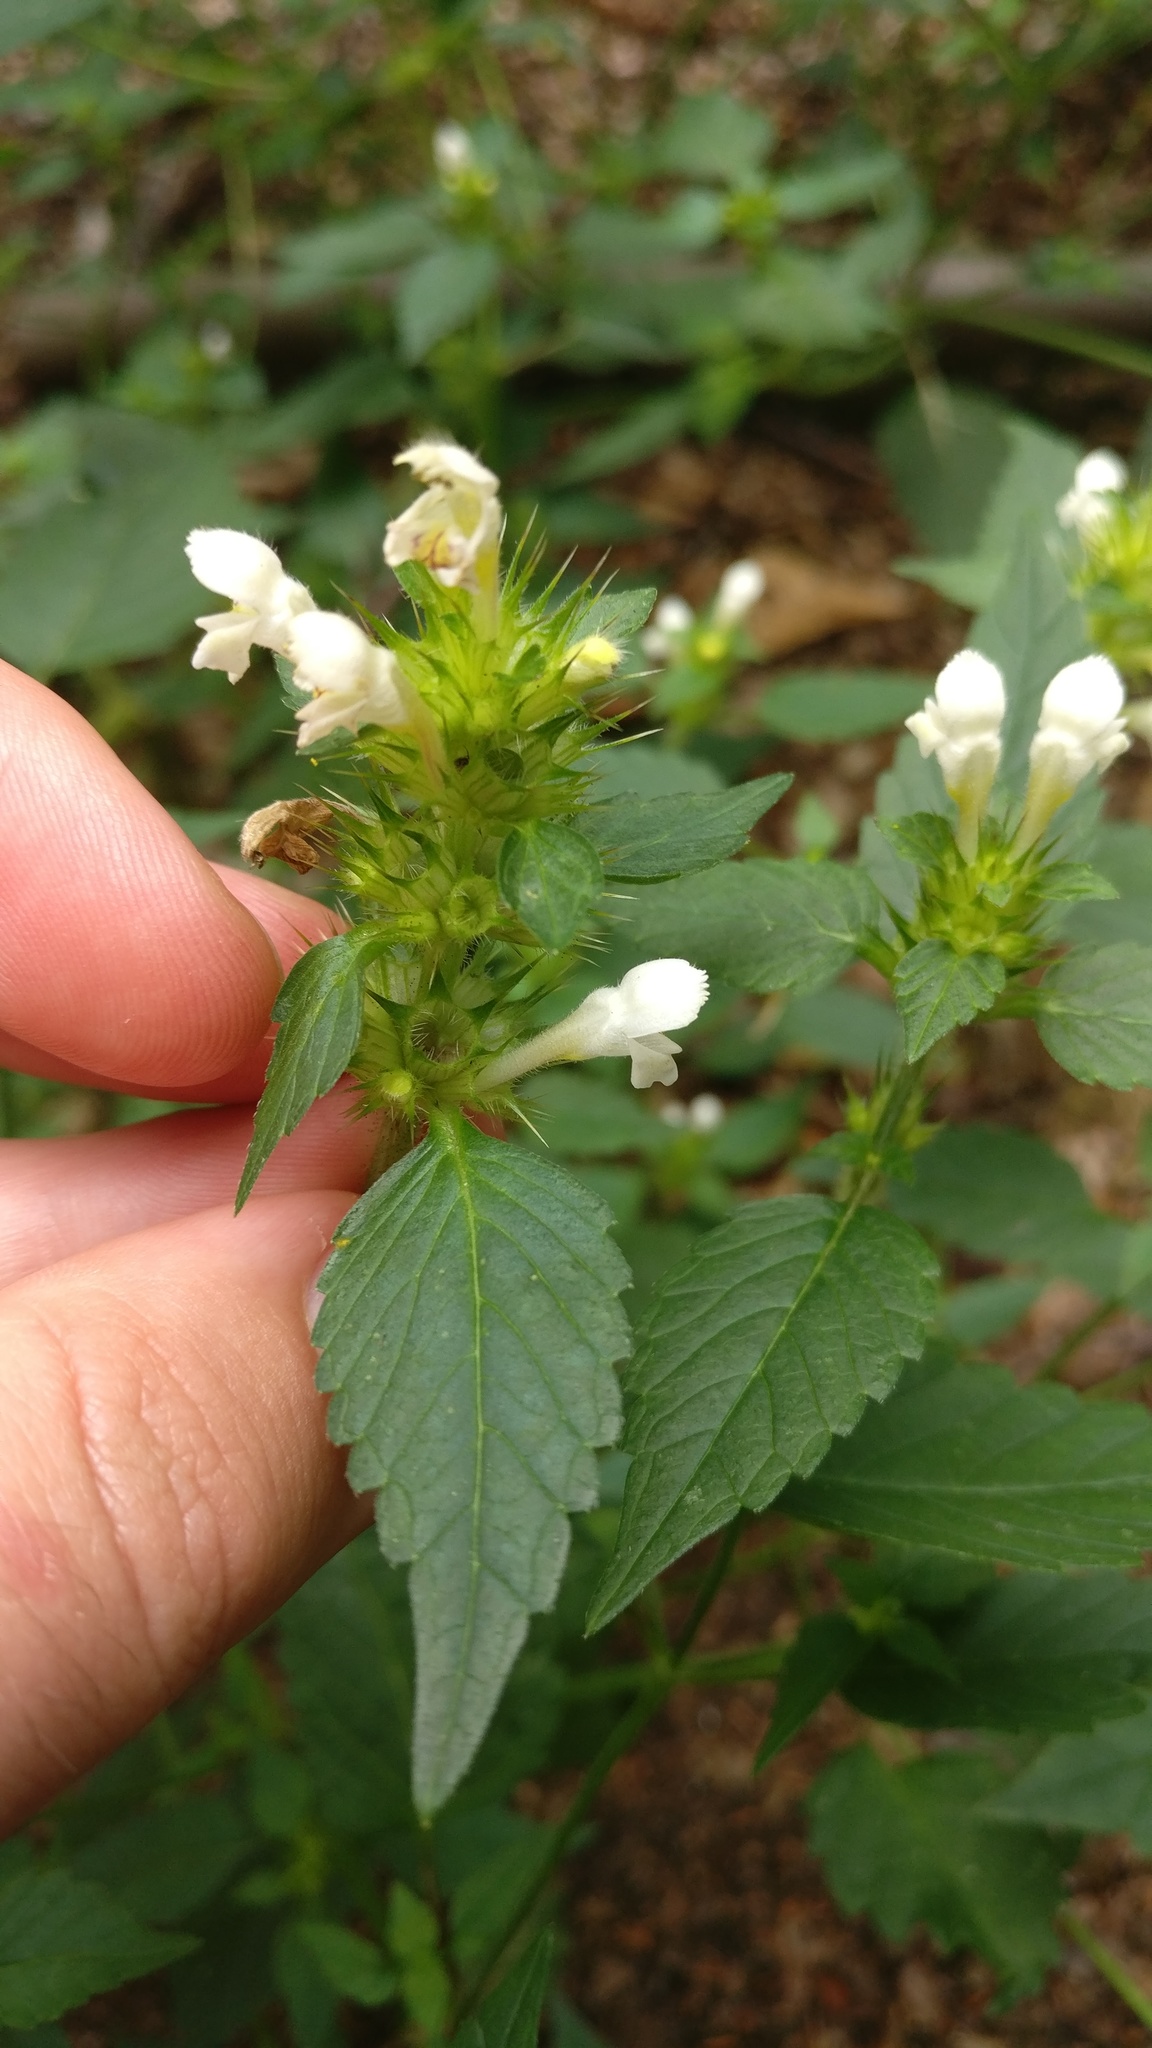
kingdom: Plantae
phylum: Tracheophyta
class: Magnoliopsida
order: Lamiales
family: Lamiaceae
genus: Galeopsis
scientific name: Galeopsis tetrahit
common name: Common hemp-nettle
